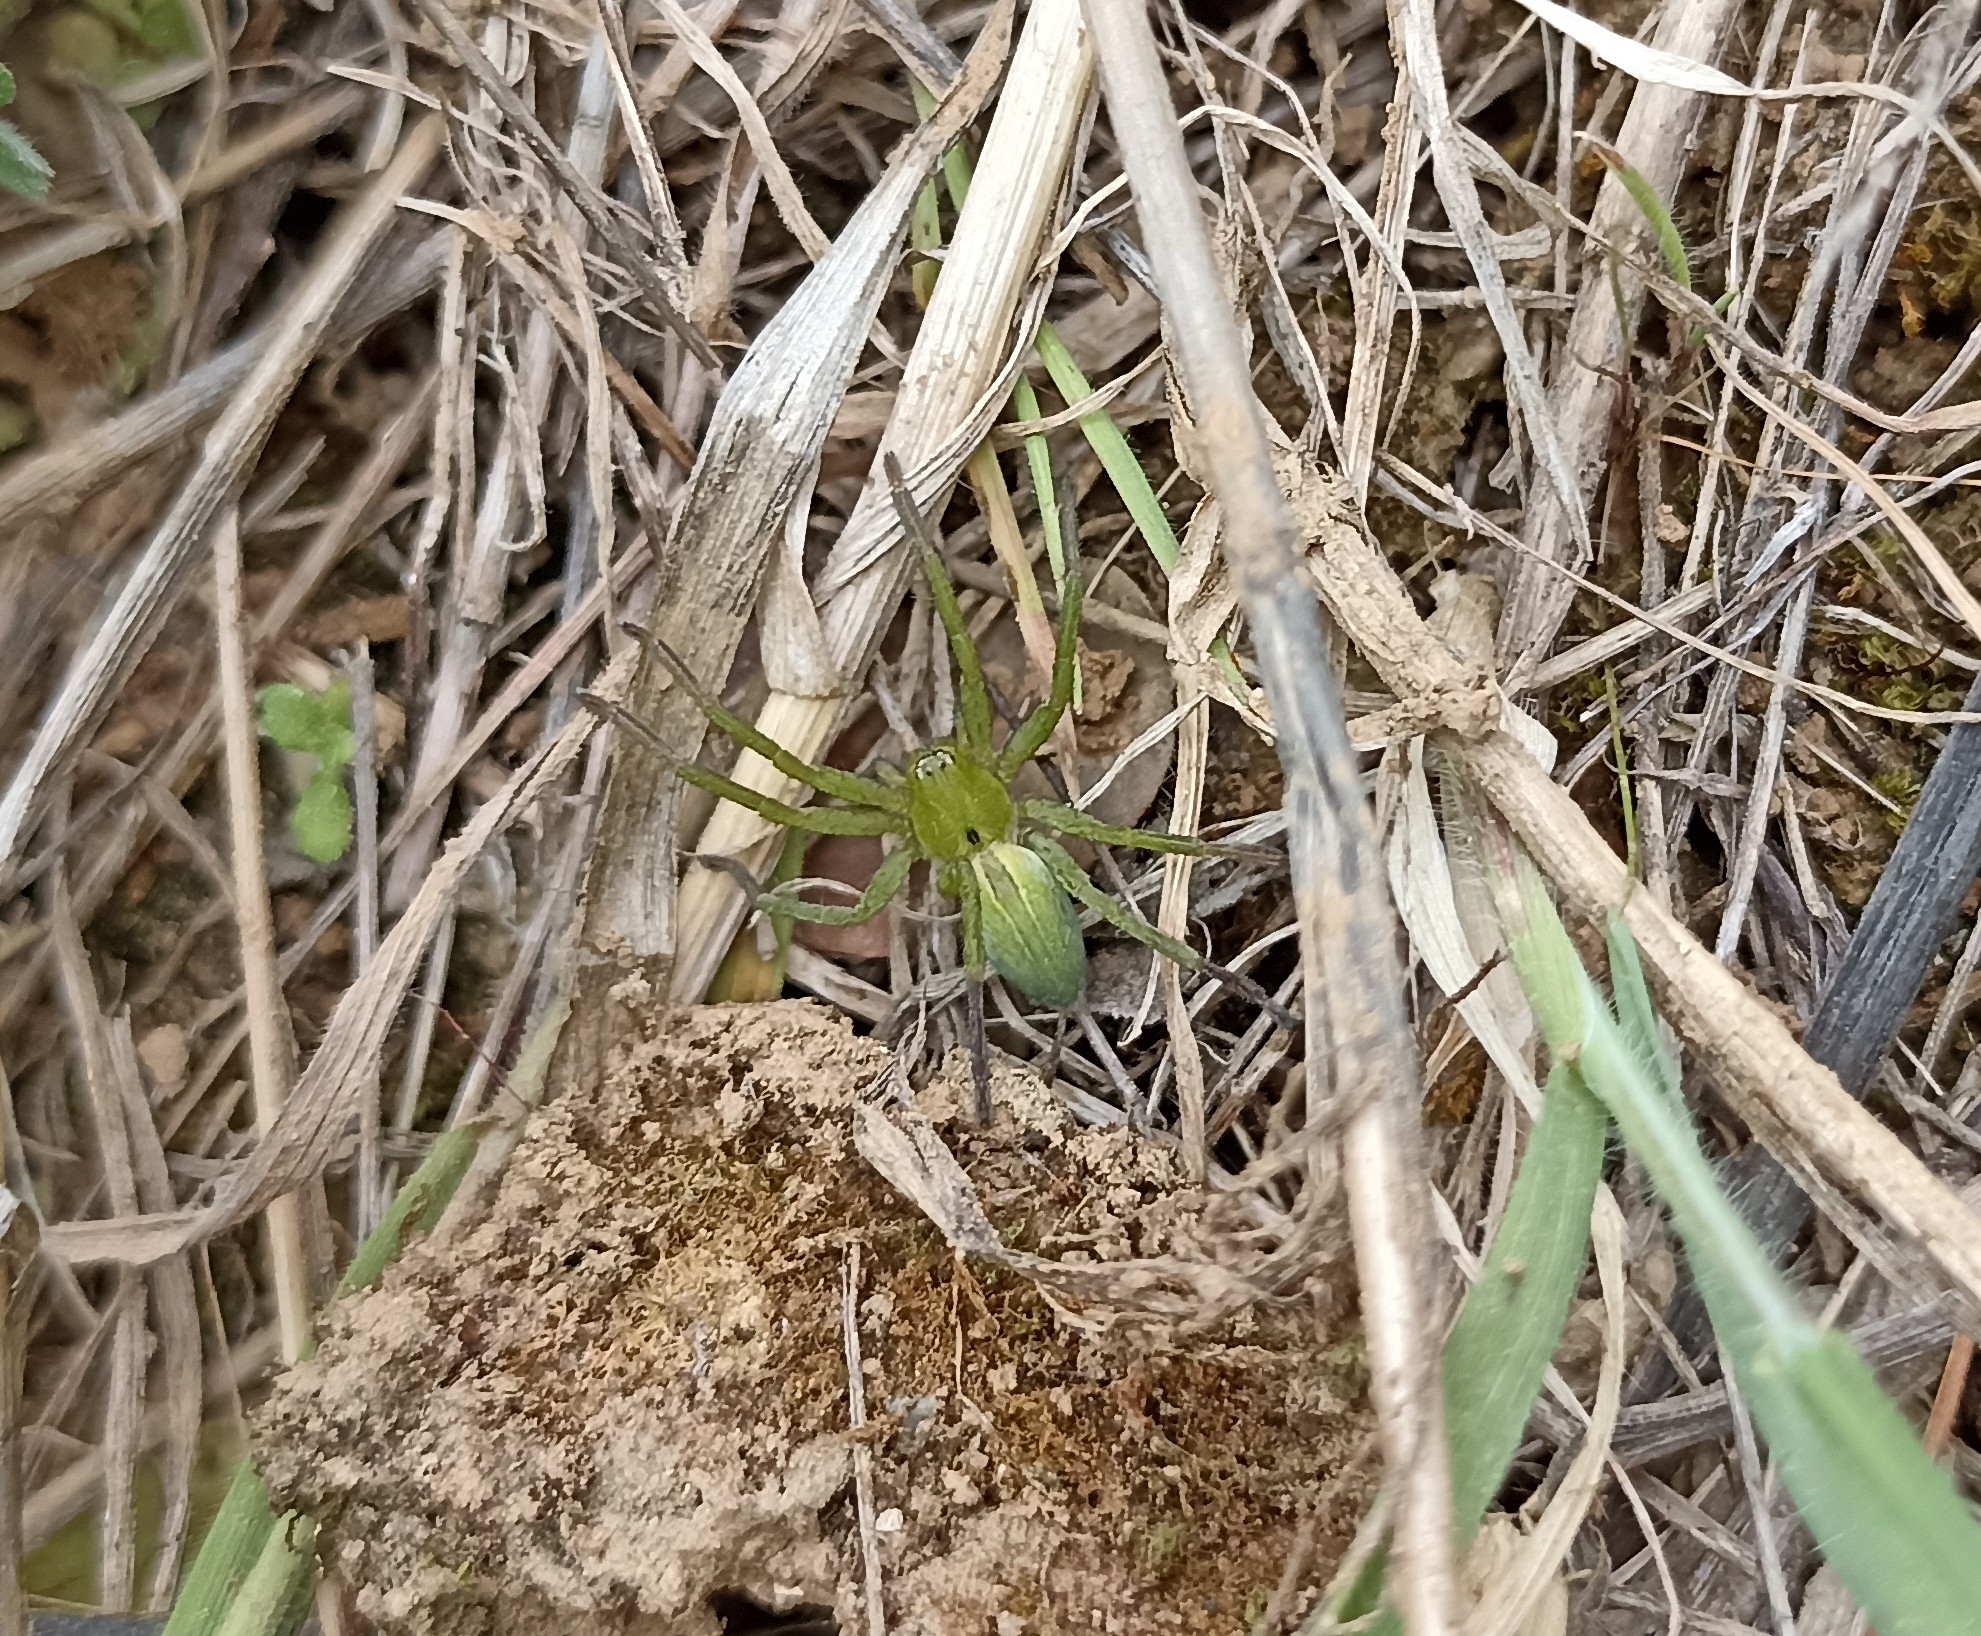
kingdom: Animalia
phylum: Arthropoda
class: Arachnida
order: Araneae
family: Sparassidae
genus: Micrommata
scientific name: Micrommata ligurina
